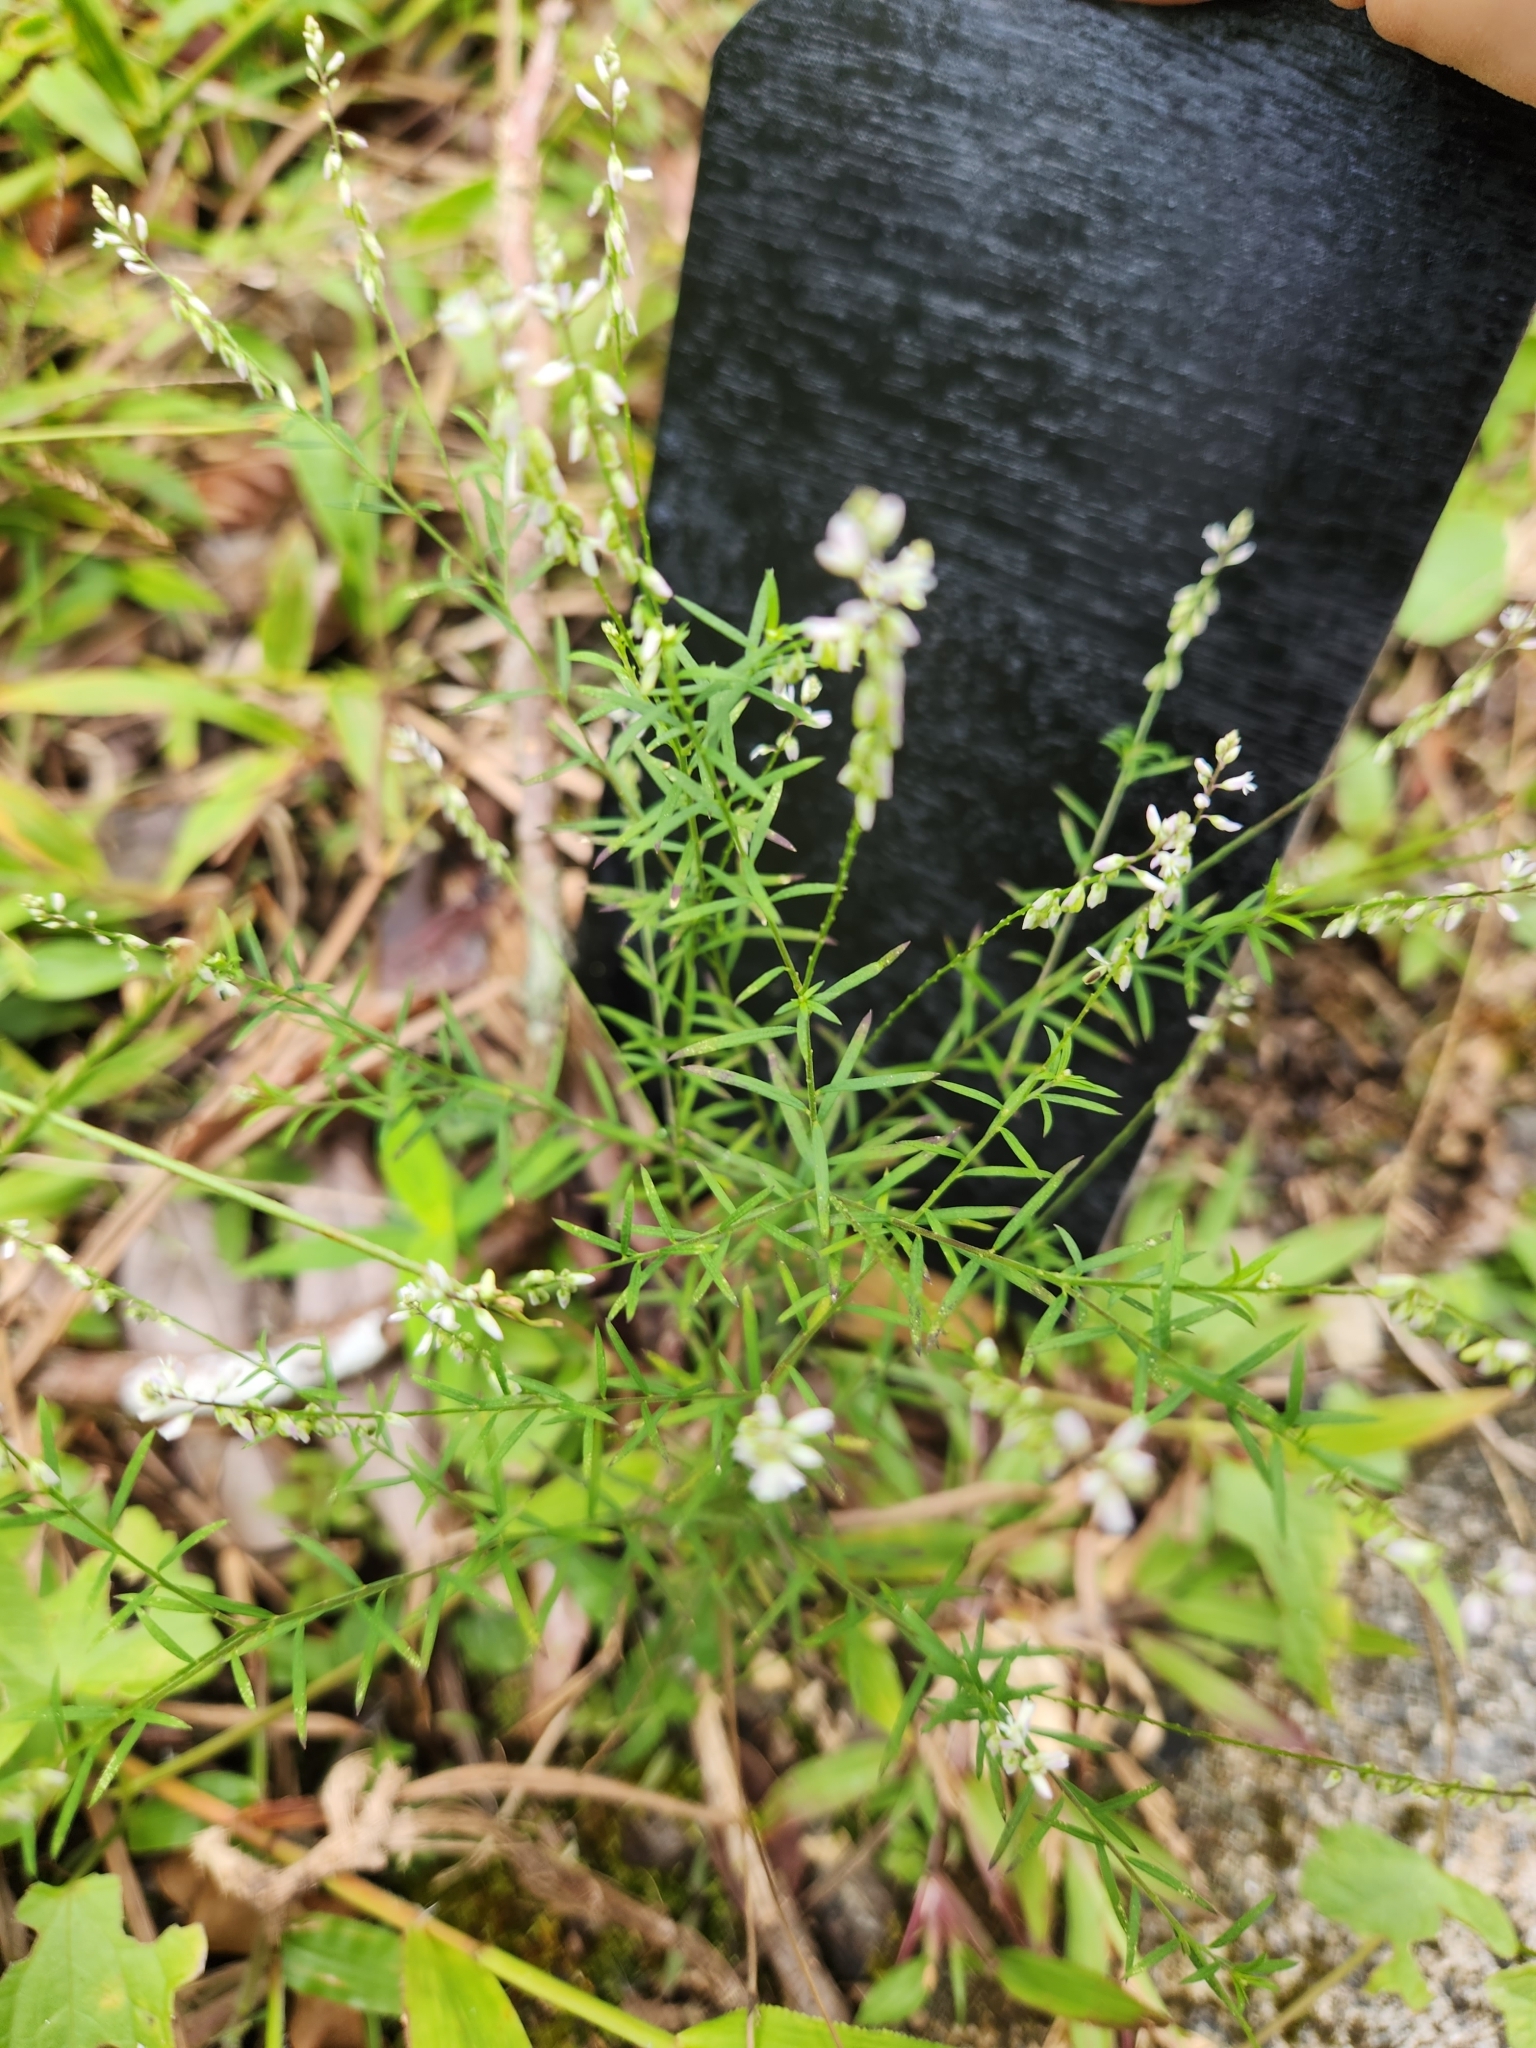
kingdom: Plantae
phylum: Tracheophyta
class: Magnoliopsida
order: Fabales
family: Polygalaceae
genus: Polygala
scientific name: Polygala paniculata
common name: Orosne
